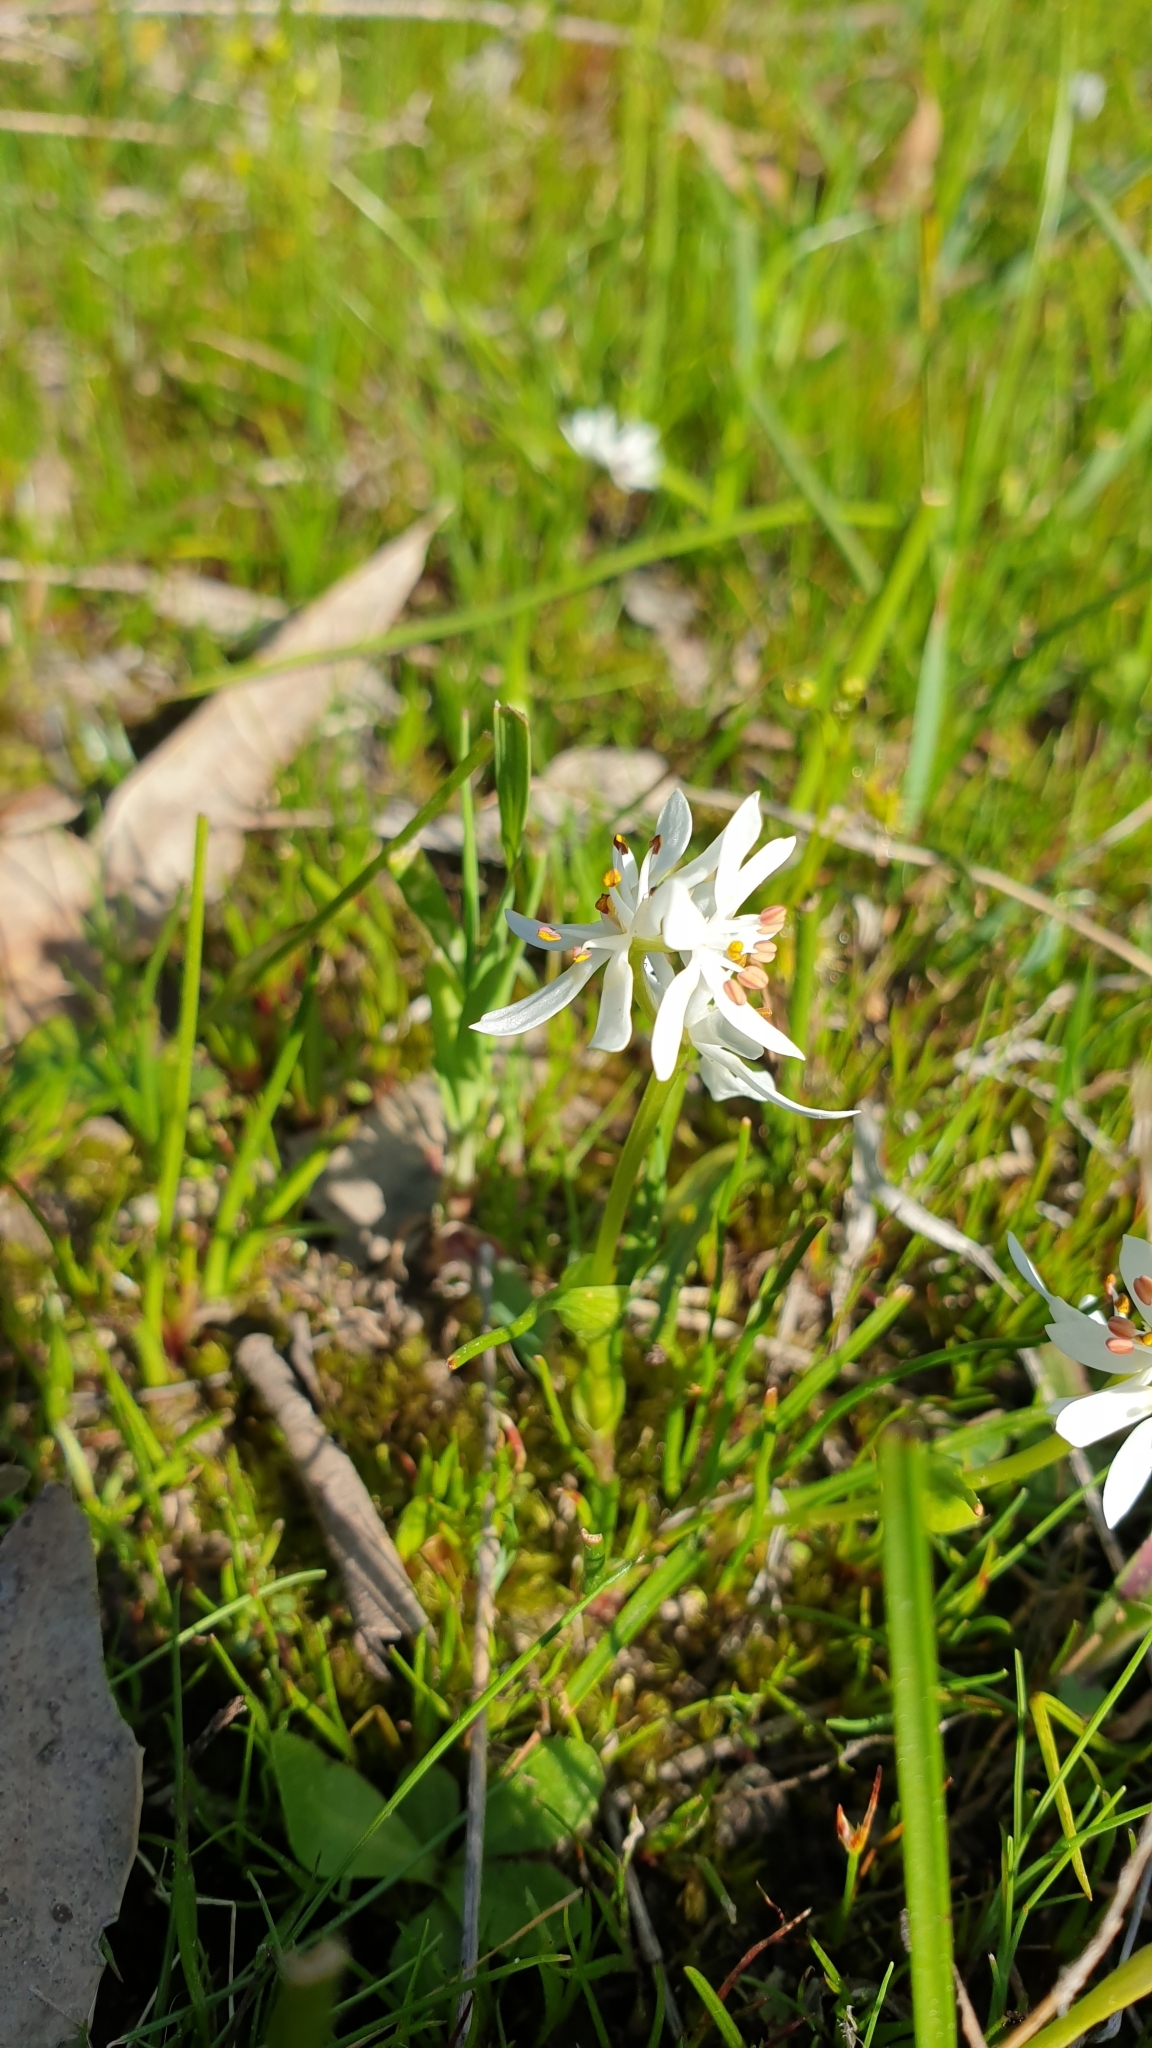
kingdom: Plantae
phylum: Tracheophyta
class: Liliopsida
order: Liliales
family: Colchicaceae
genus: Wurmbea
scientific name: Wurmbea dioica
